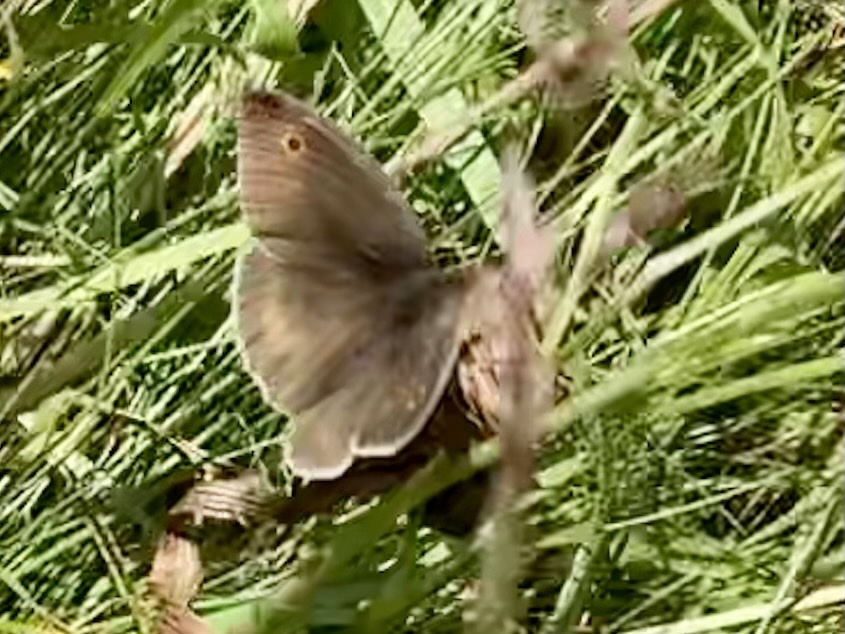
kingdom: Animalia
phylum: Arthropoda
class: Insecta
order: Lepidoptera
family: Nymphalidae
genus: Maniola
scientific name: Maniola jurtina
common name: Meadow brown
